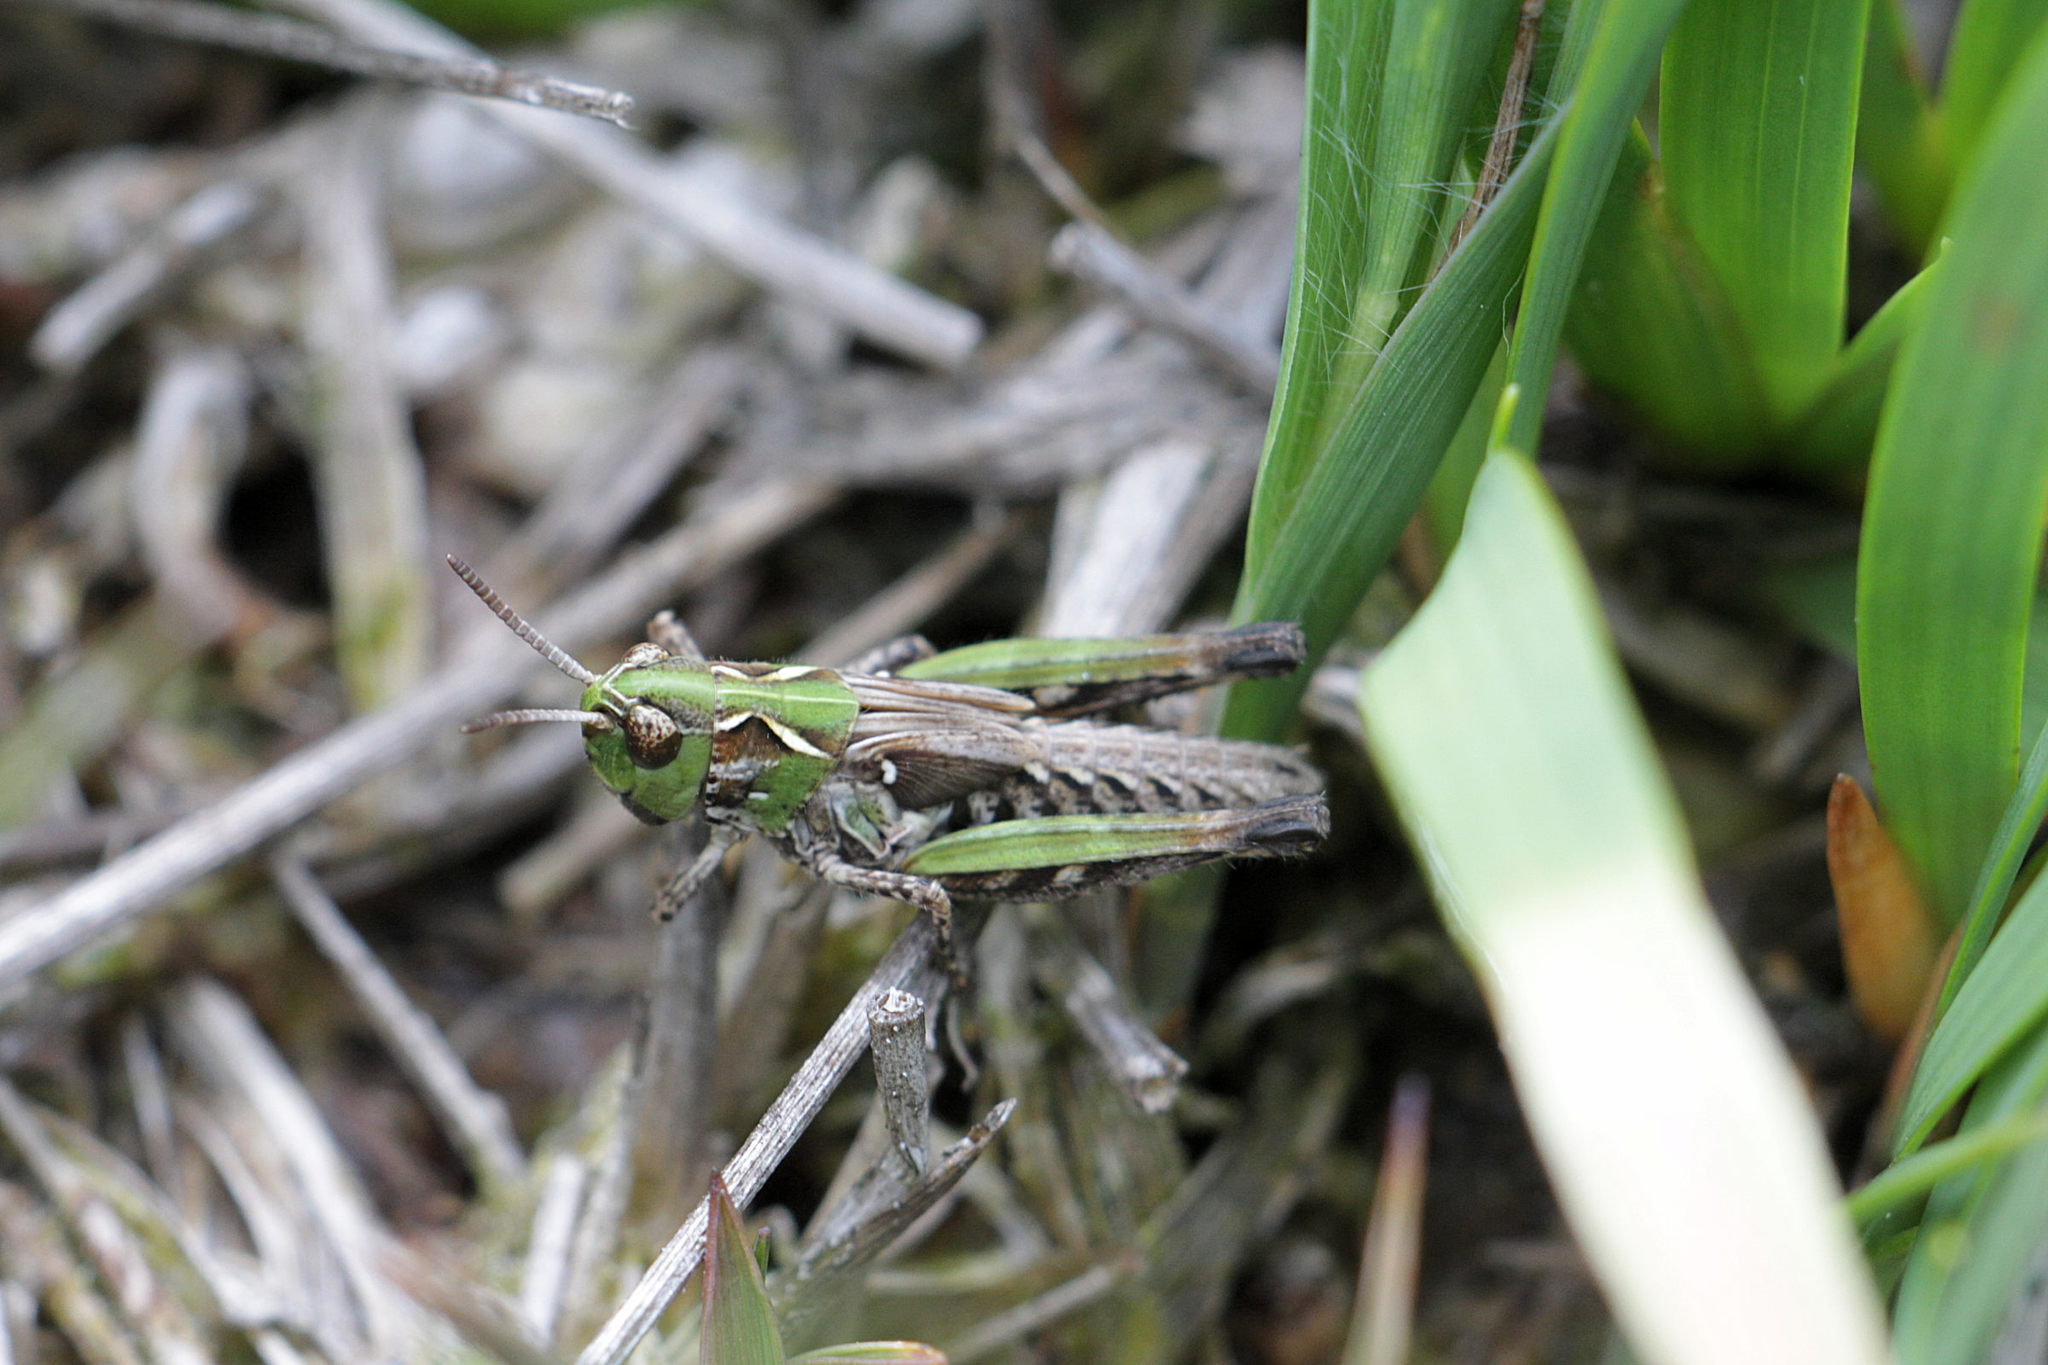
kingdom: Animalia
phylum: Arthropoda
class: Insecta
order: Orthoptera
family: Acrididae
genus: Myrmeleotettix
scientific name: Myrmeleotettix maculatus
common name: Mottled grasshopper
